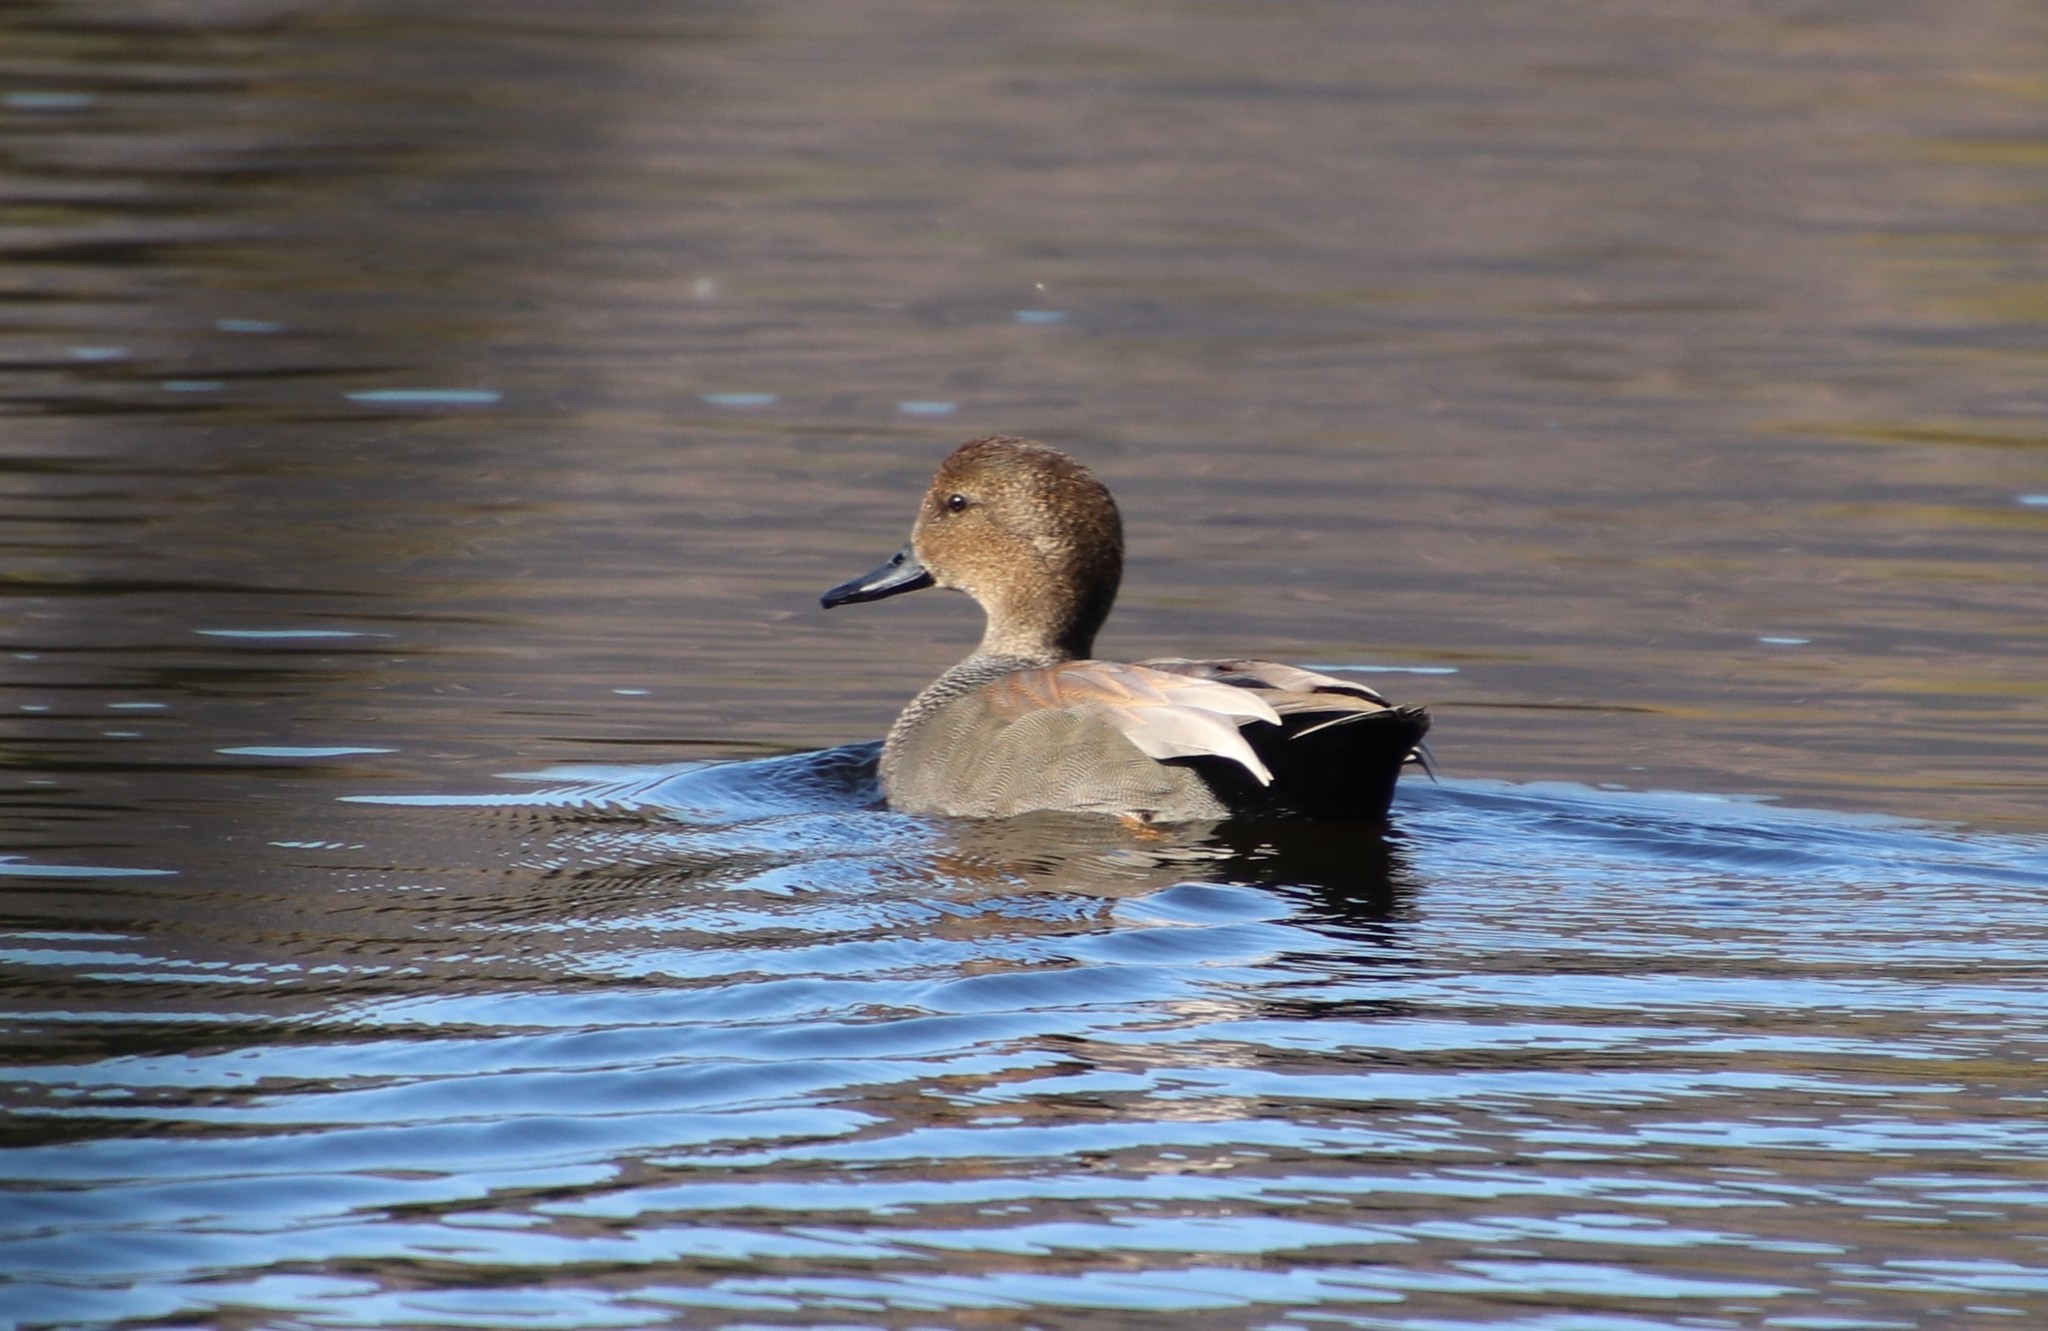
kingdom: Animalia
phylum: Chordata
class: Aves
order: Anseriformes
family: Anatidae
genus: Mareca
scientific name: Mareca strepera
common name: Gadwall
